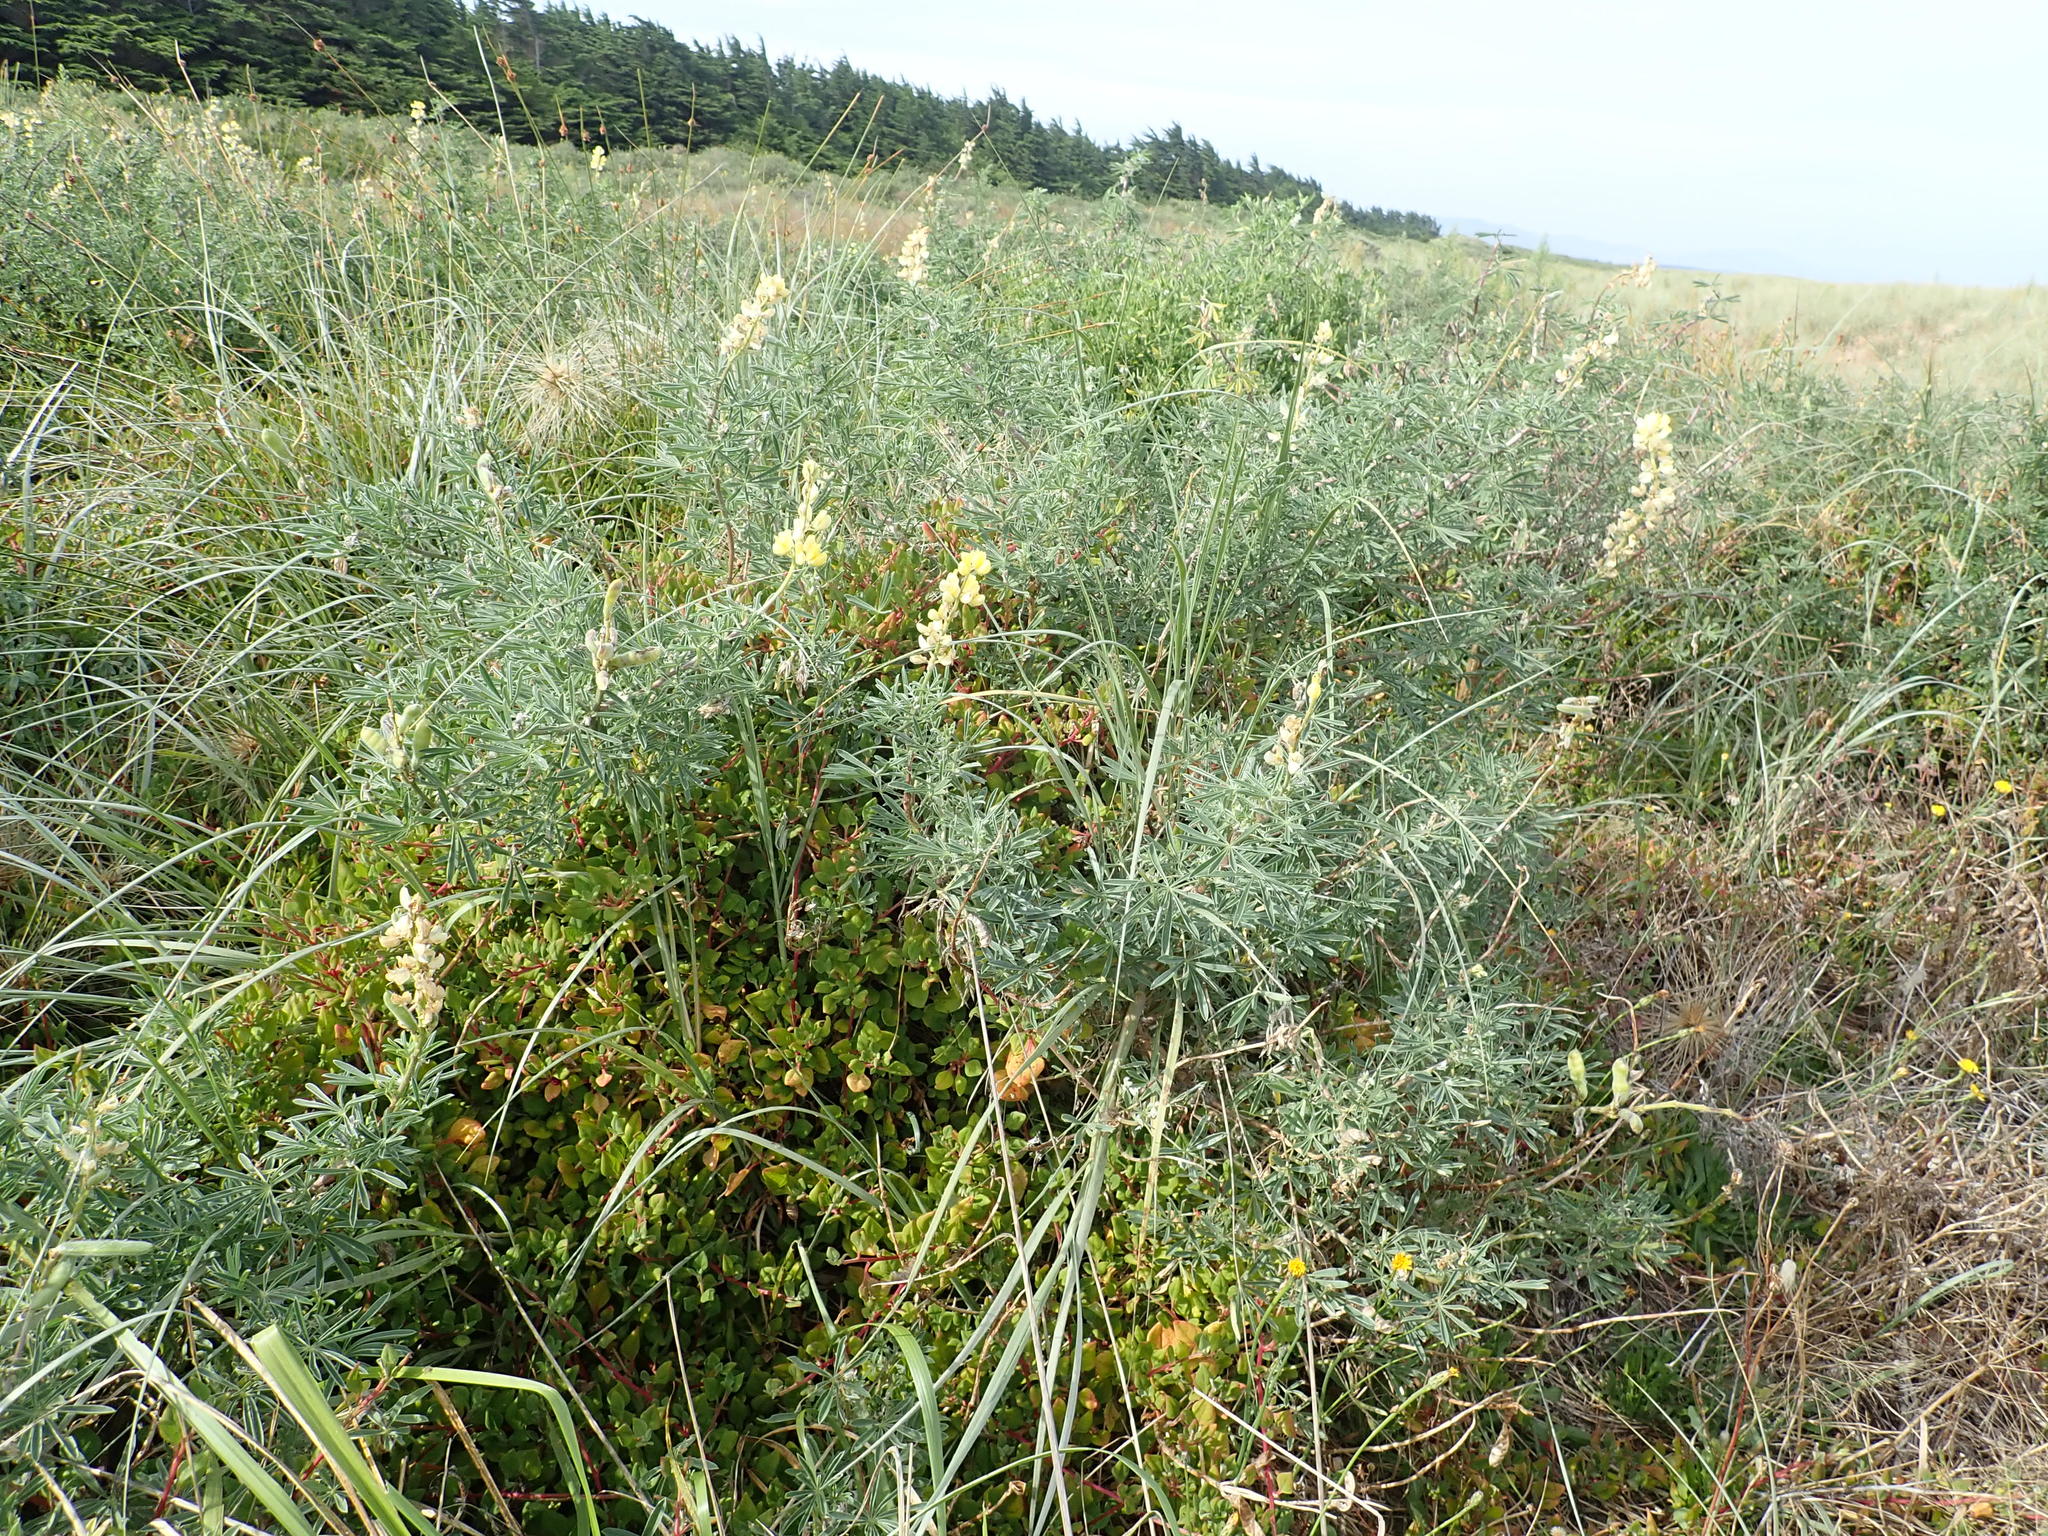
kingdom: Plantae
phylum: Tracheophyta
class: Magnoliopsida
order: Fabales
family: Fabaceae
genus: Lupinus
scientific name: Lupinus arboreus
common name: Yellow bush lupine
